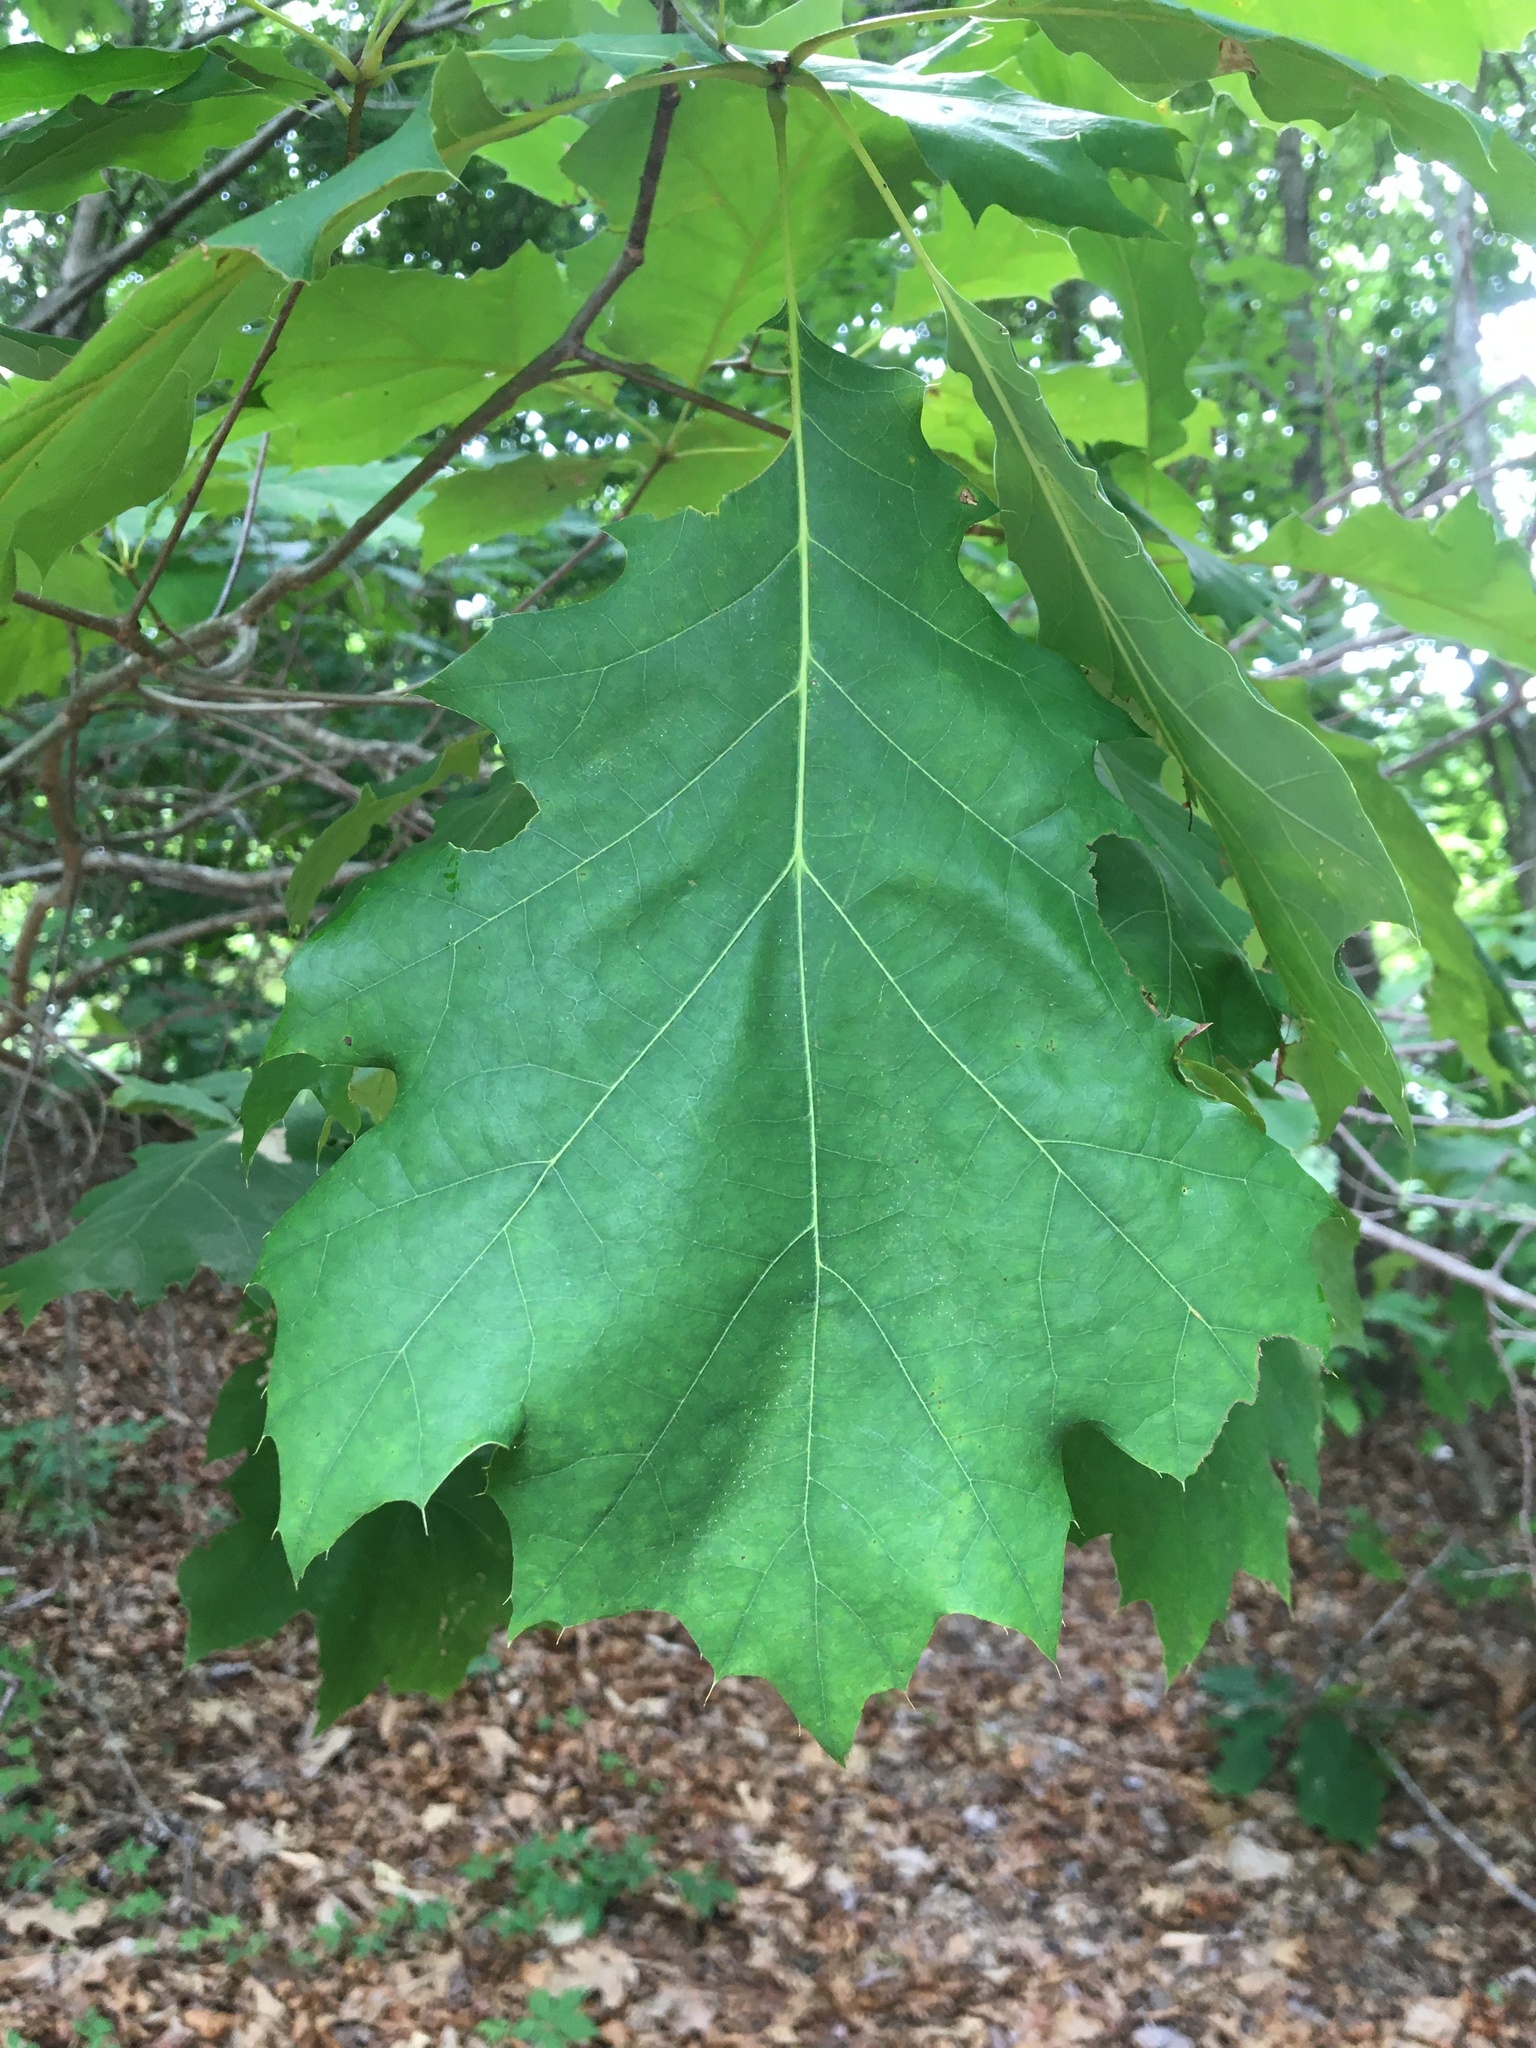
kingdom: Plantae
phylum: Tracheophyta
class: Magnoliopsida
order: Fagales
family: Fagaceae
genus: Quercus
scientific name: Quercus rubra
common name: Red oak
